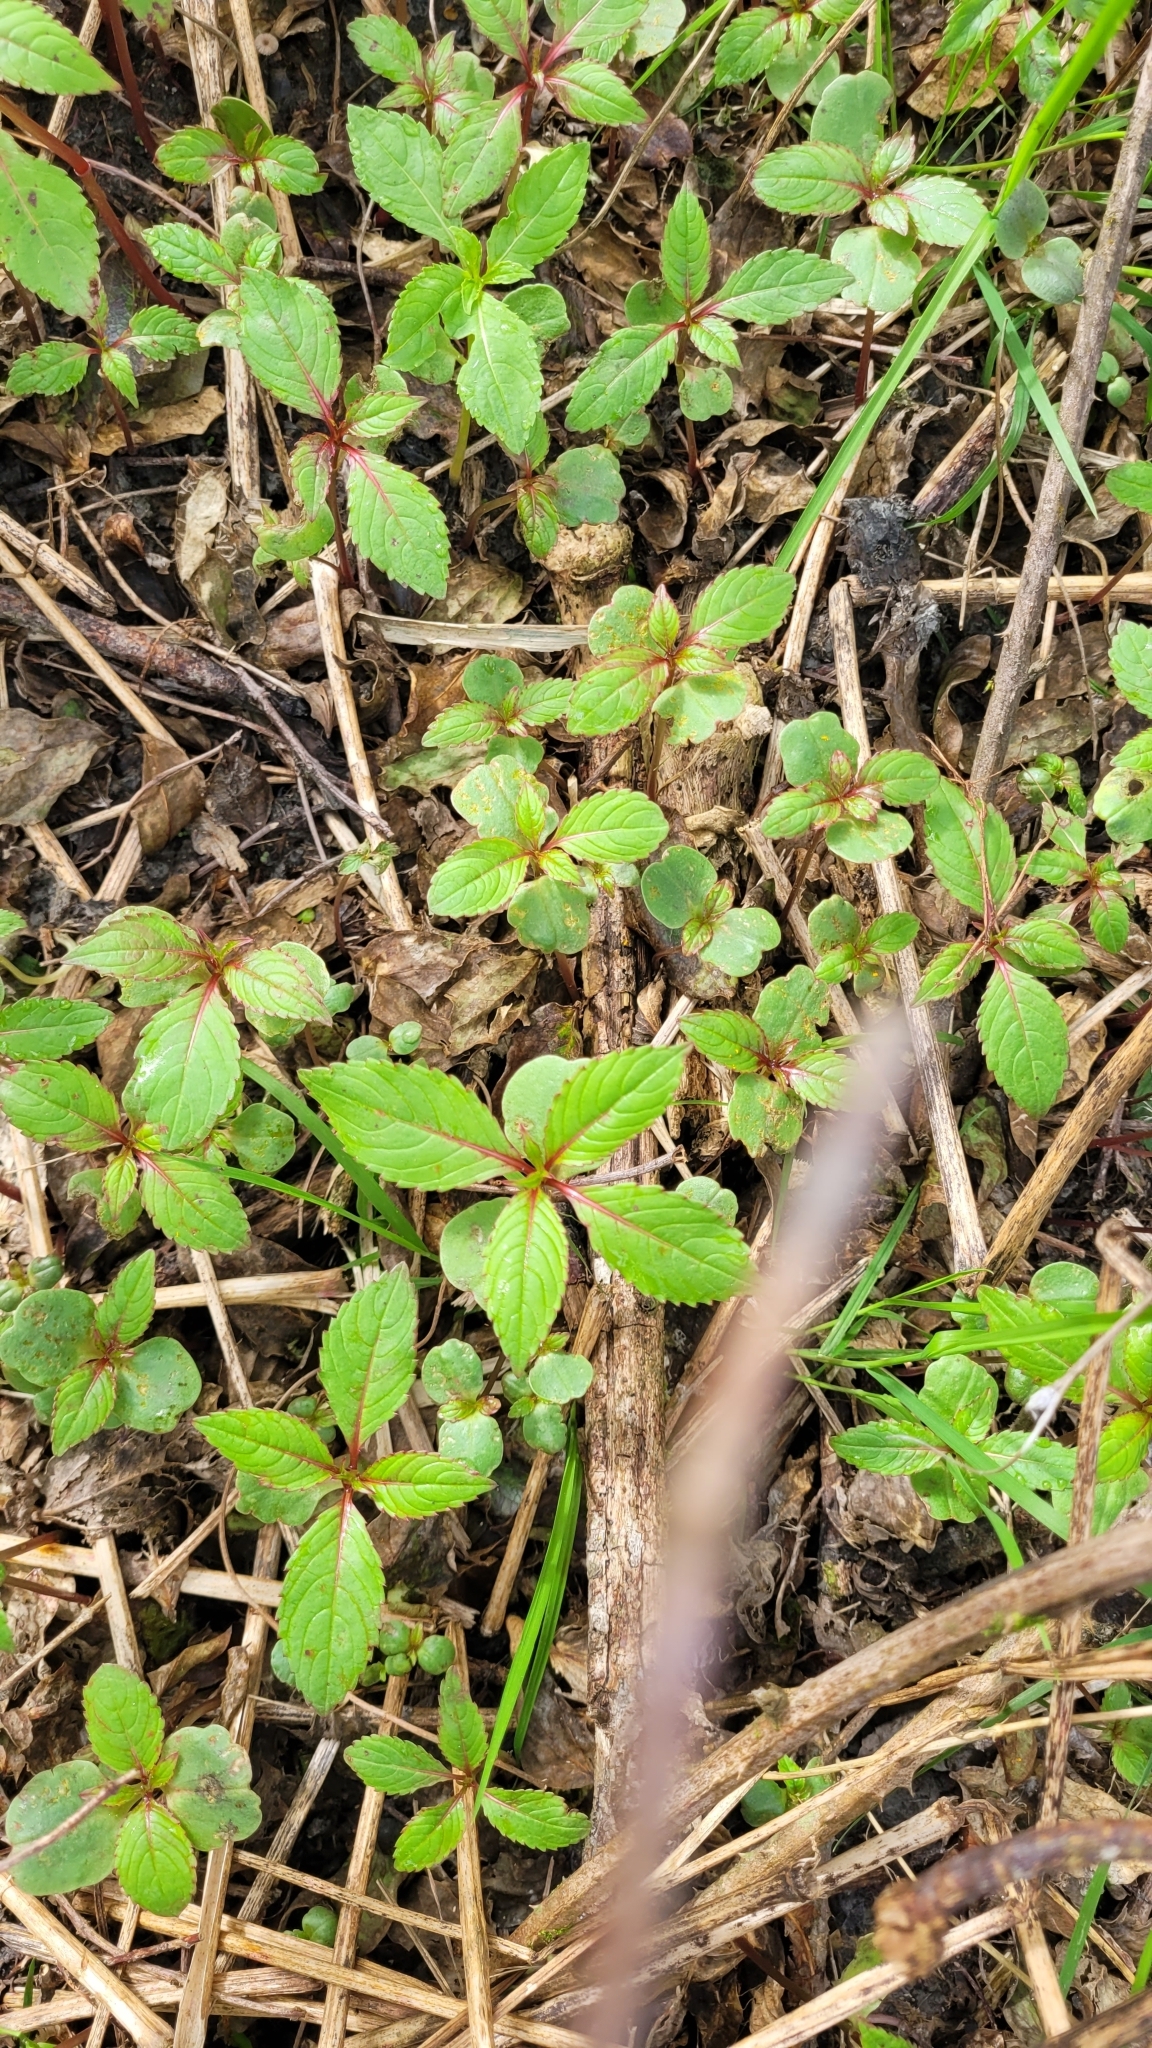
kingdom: Plantae
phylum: Tracheophyta
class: Magnoliopsida
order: Ericales
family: Balsaminaceae
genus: Impatiens
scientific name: Impatiens glandulifera
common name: Himalayan balsam
